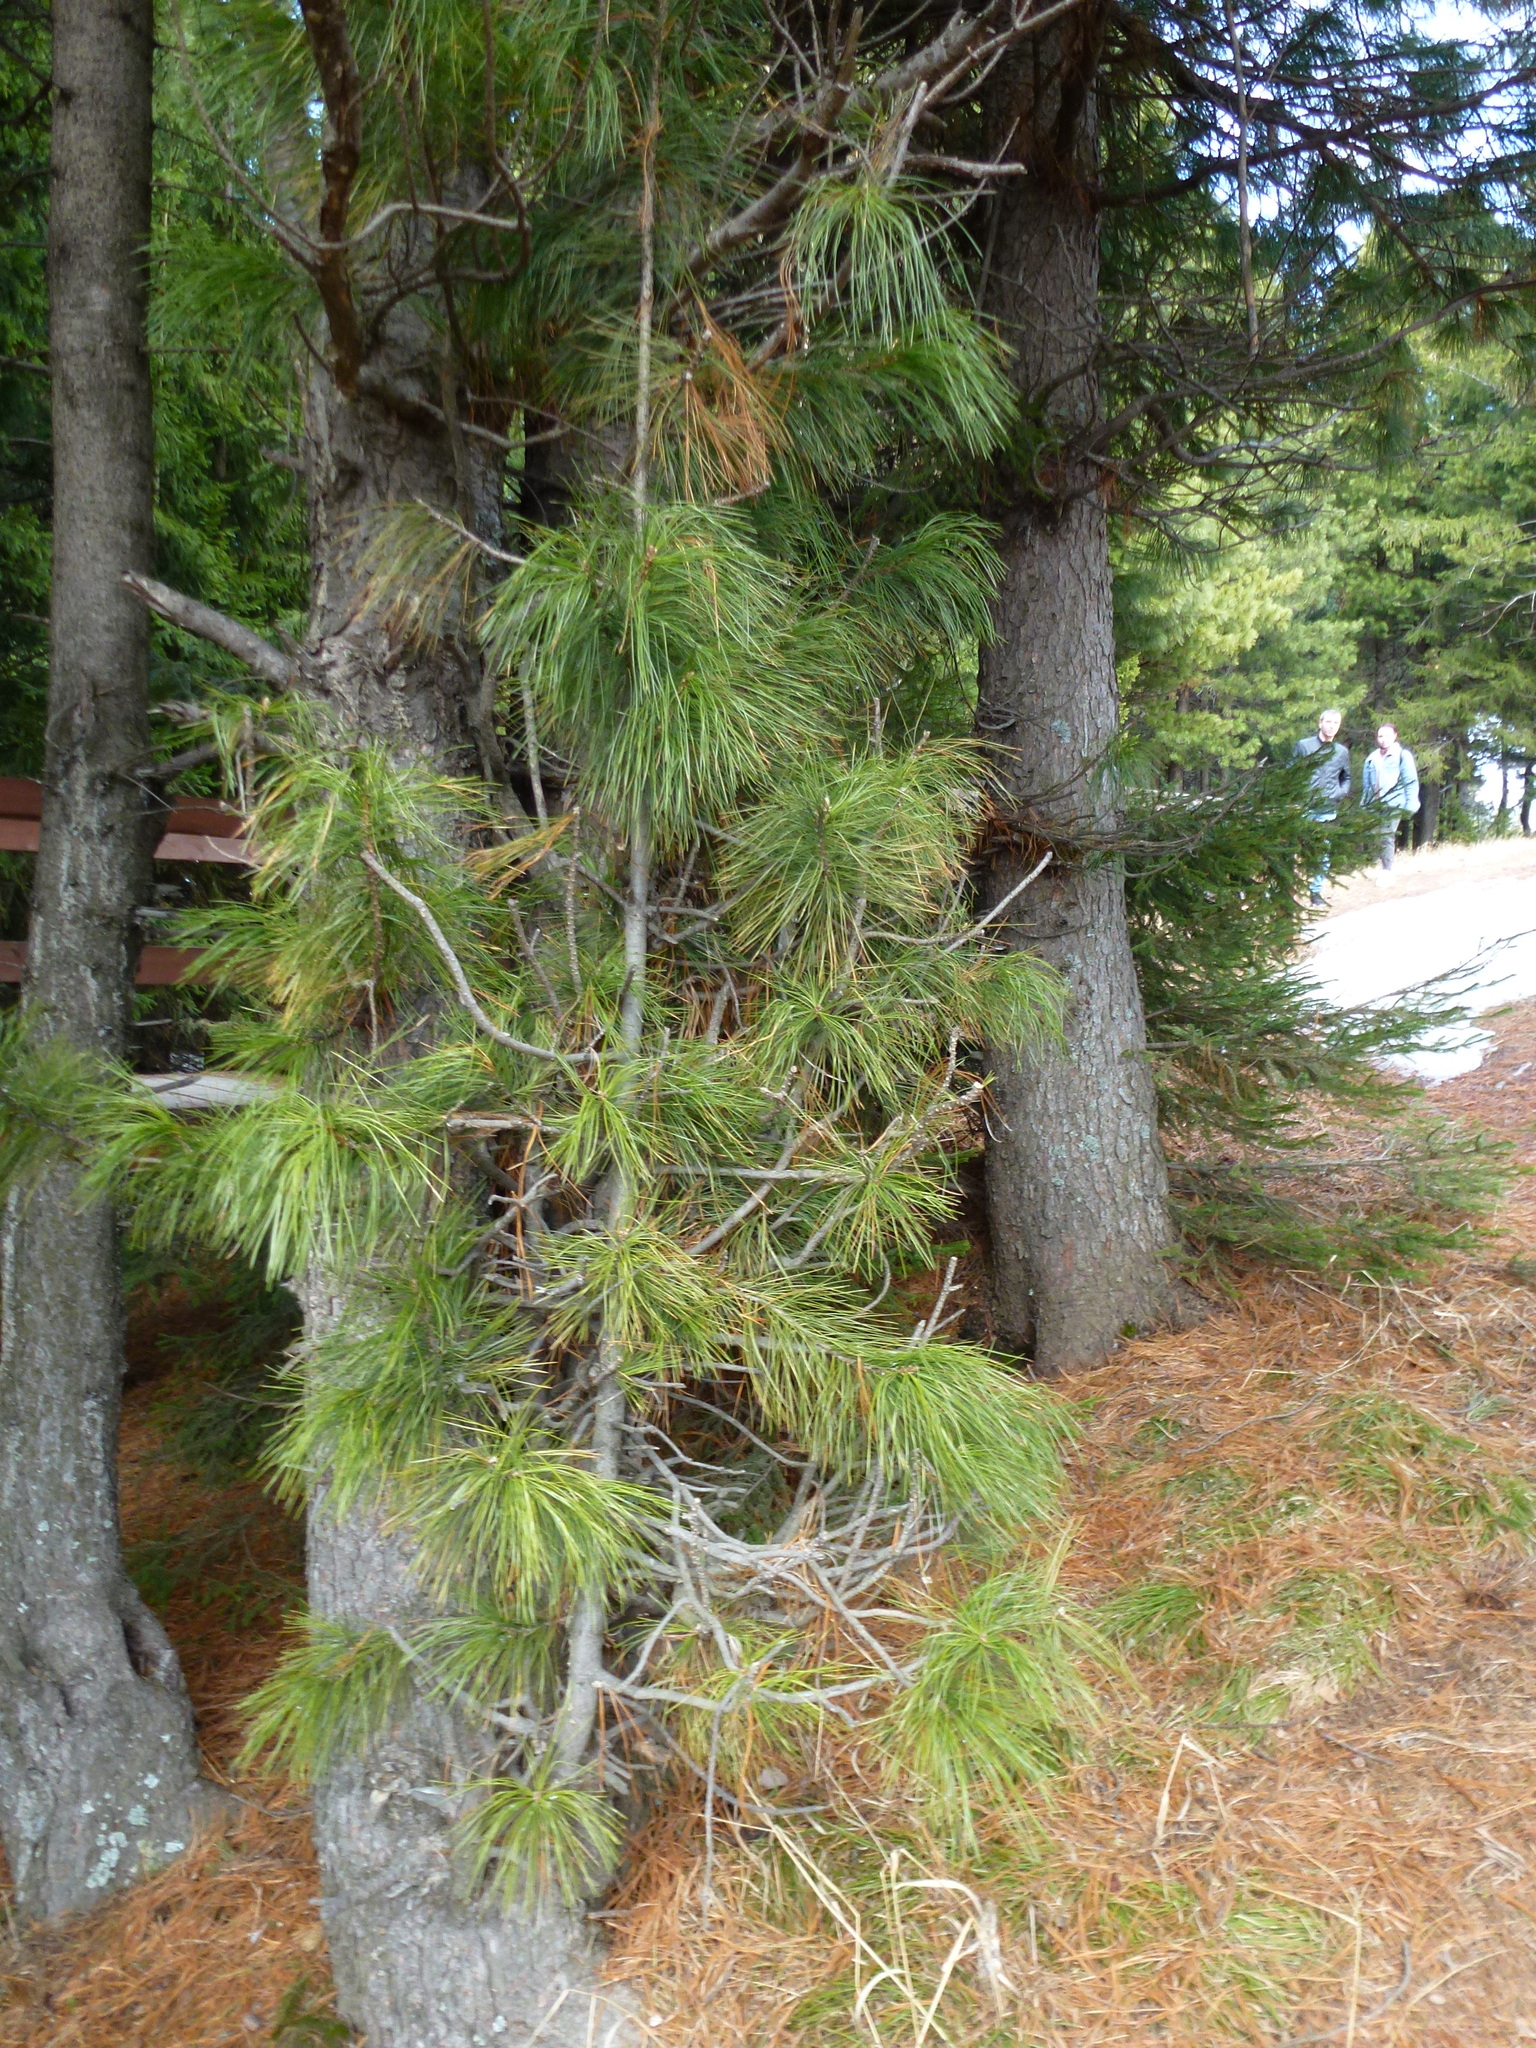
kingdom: Plantae
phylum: Tracheophyta
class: Pinopsida
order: Pinales
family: Pinaceae
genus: Pinus
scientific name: Pinus sibirica
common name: Siberian pine
